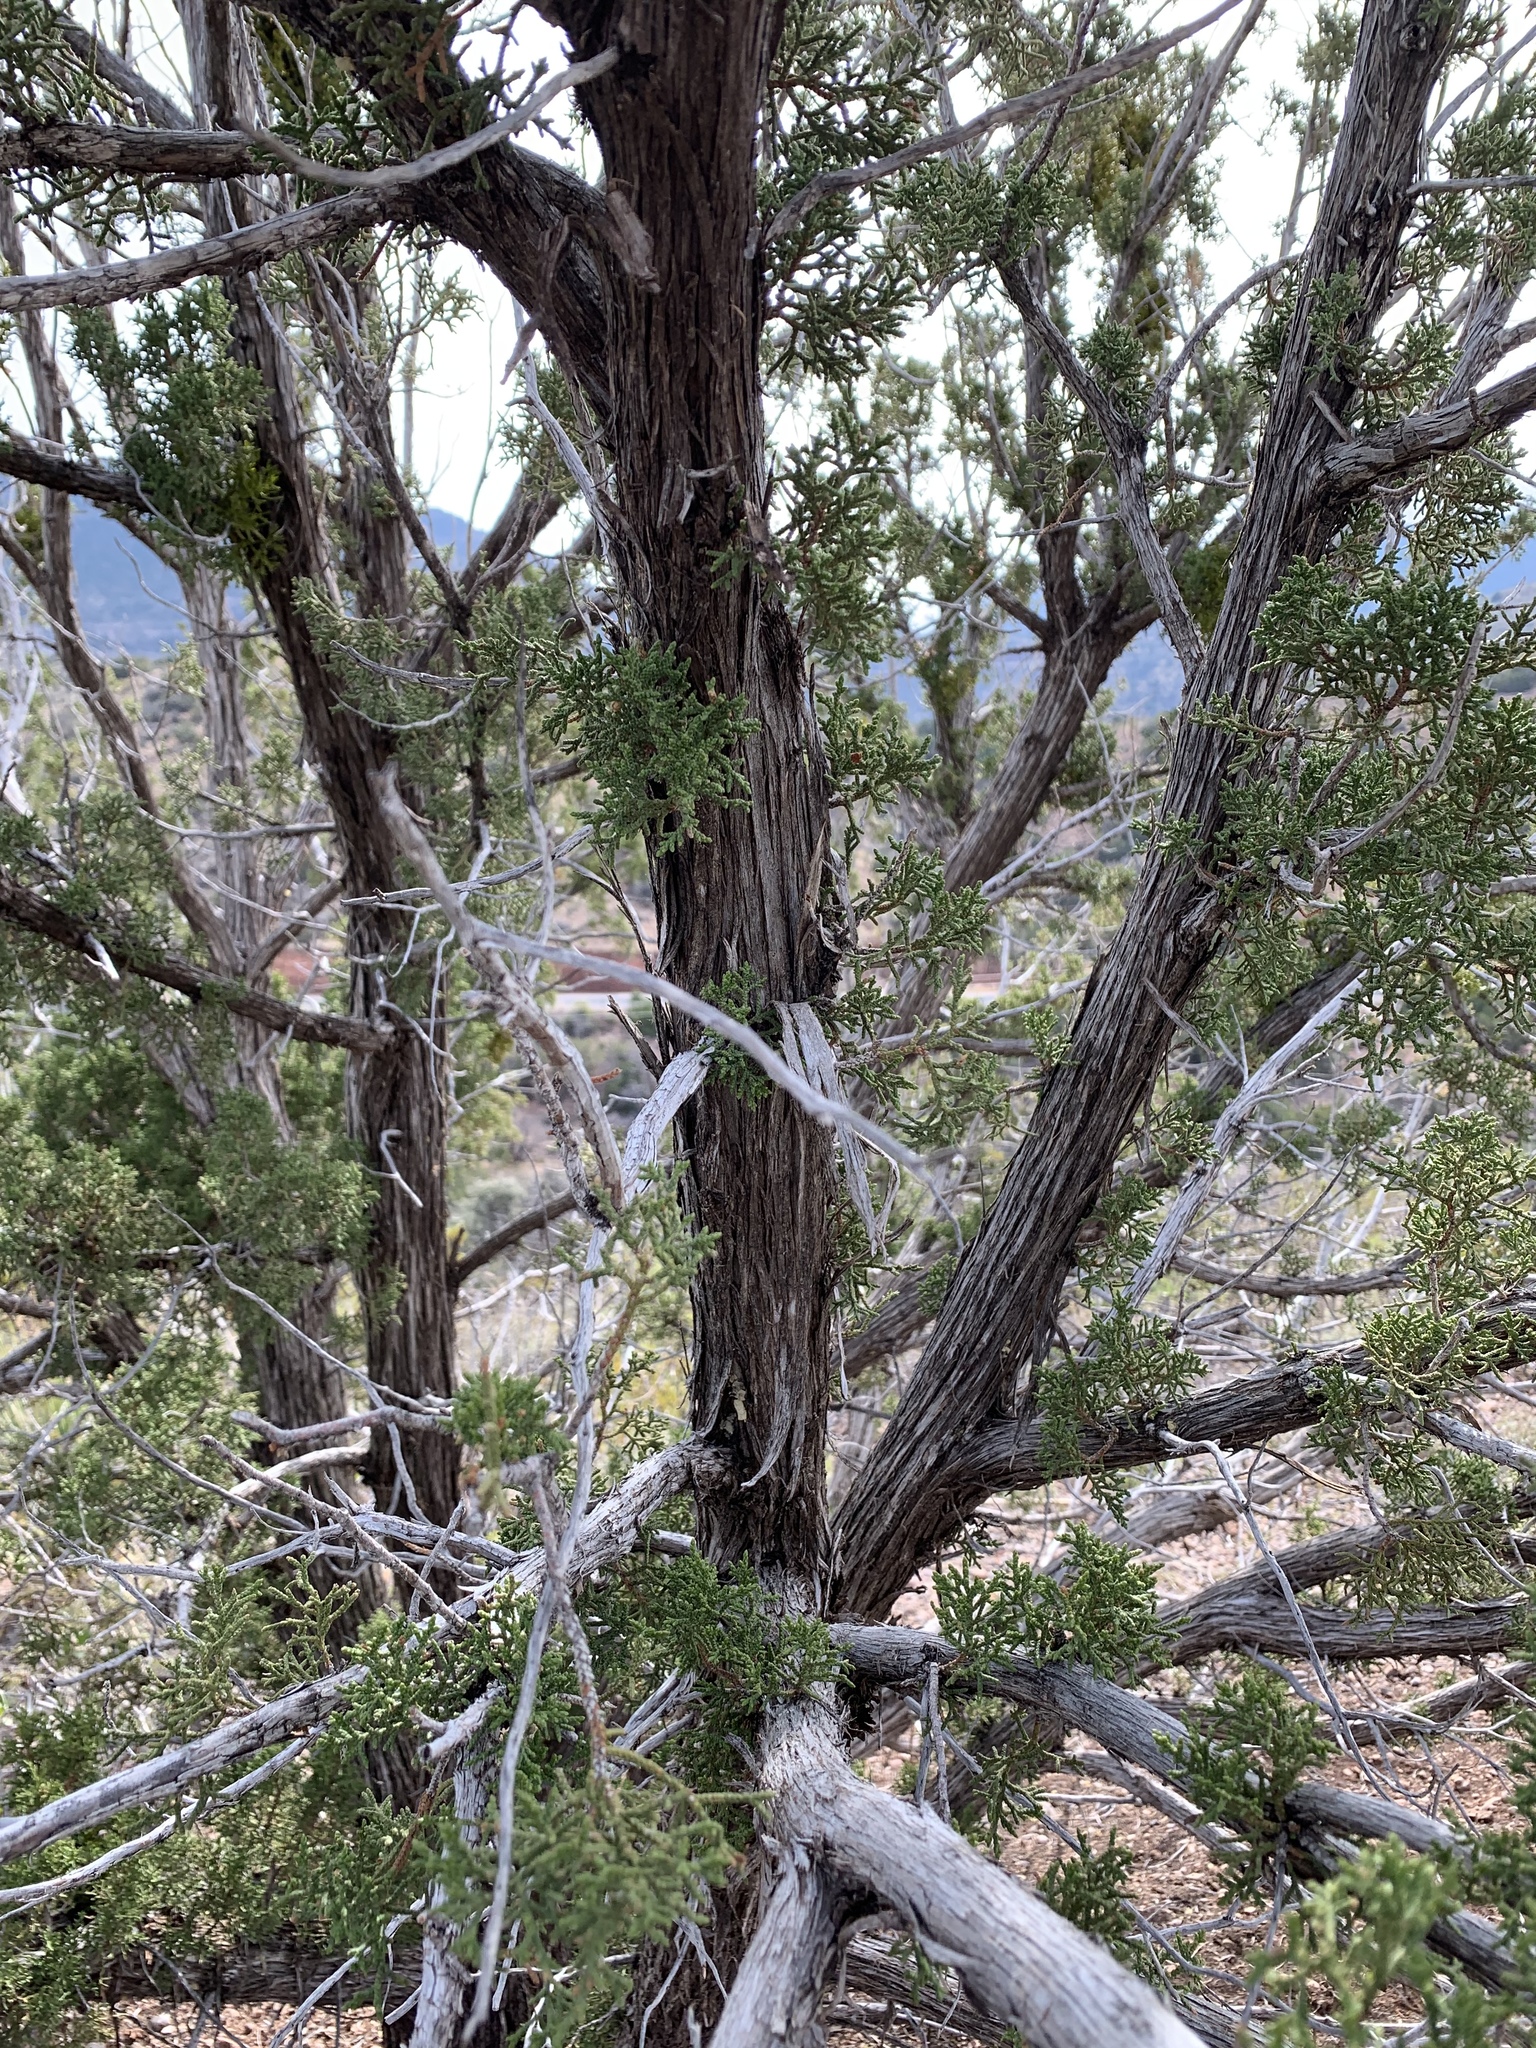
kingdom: Plantae
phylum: Tracheophyta
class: Pinopsida
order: Pinales
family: Cupressaceae
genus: Juniperus
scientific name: Juniperus monosperma
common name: One-seed juniper
